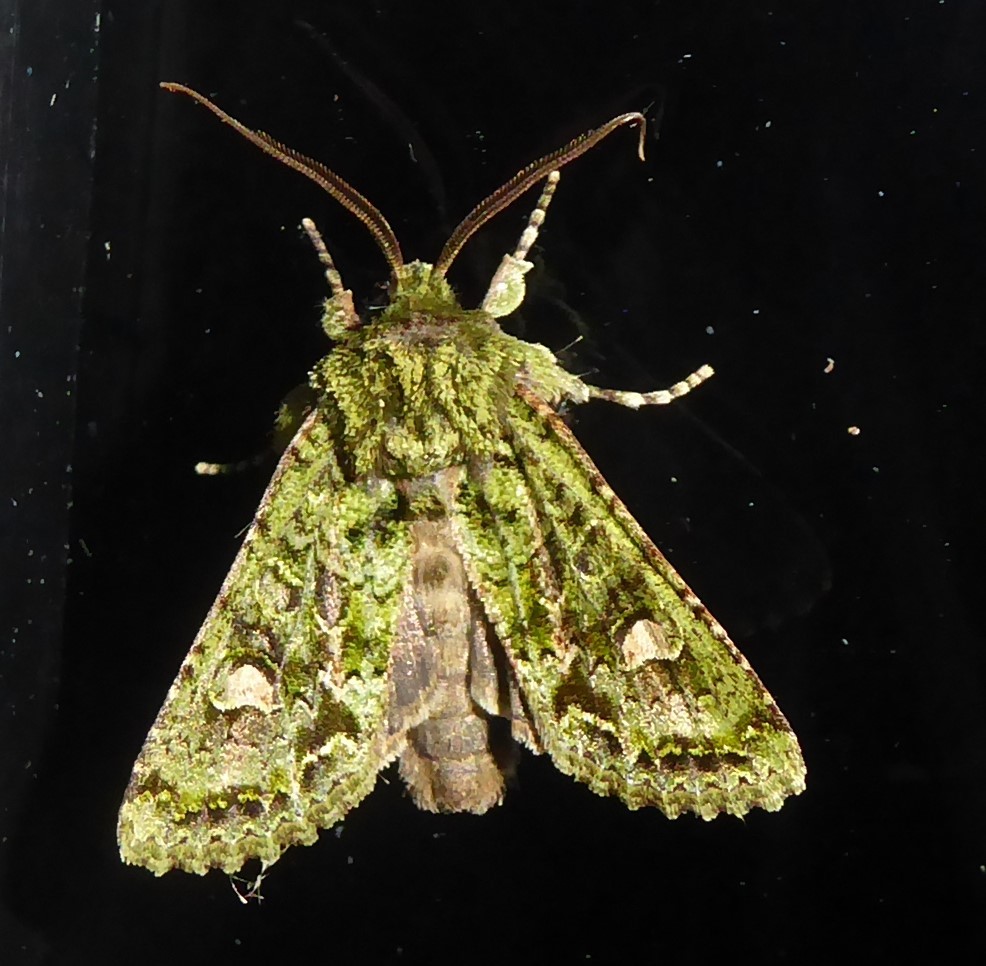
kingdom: Animalia
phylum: Arthropoda
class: Insecta
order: Lepidoptera
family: Noctuidae
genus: Ichneutica
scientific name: Ichneutica
